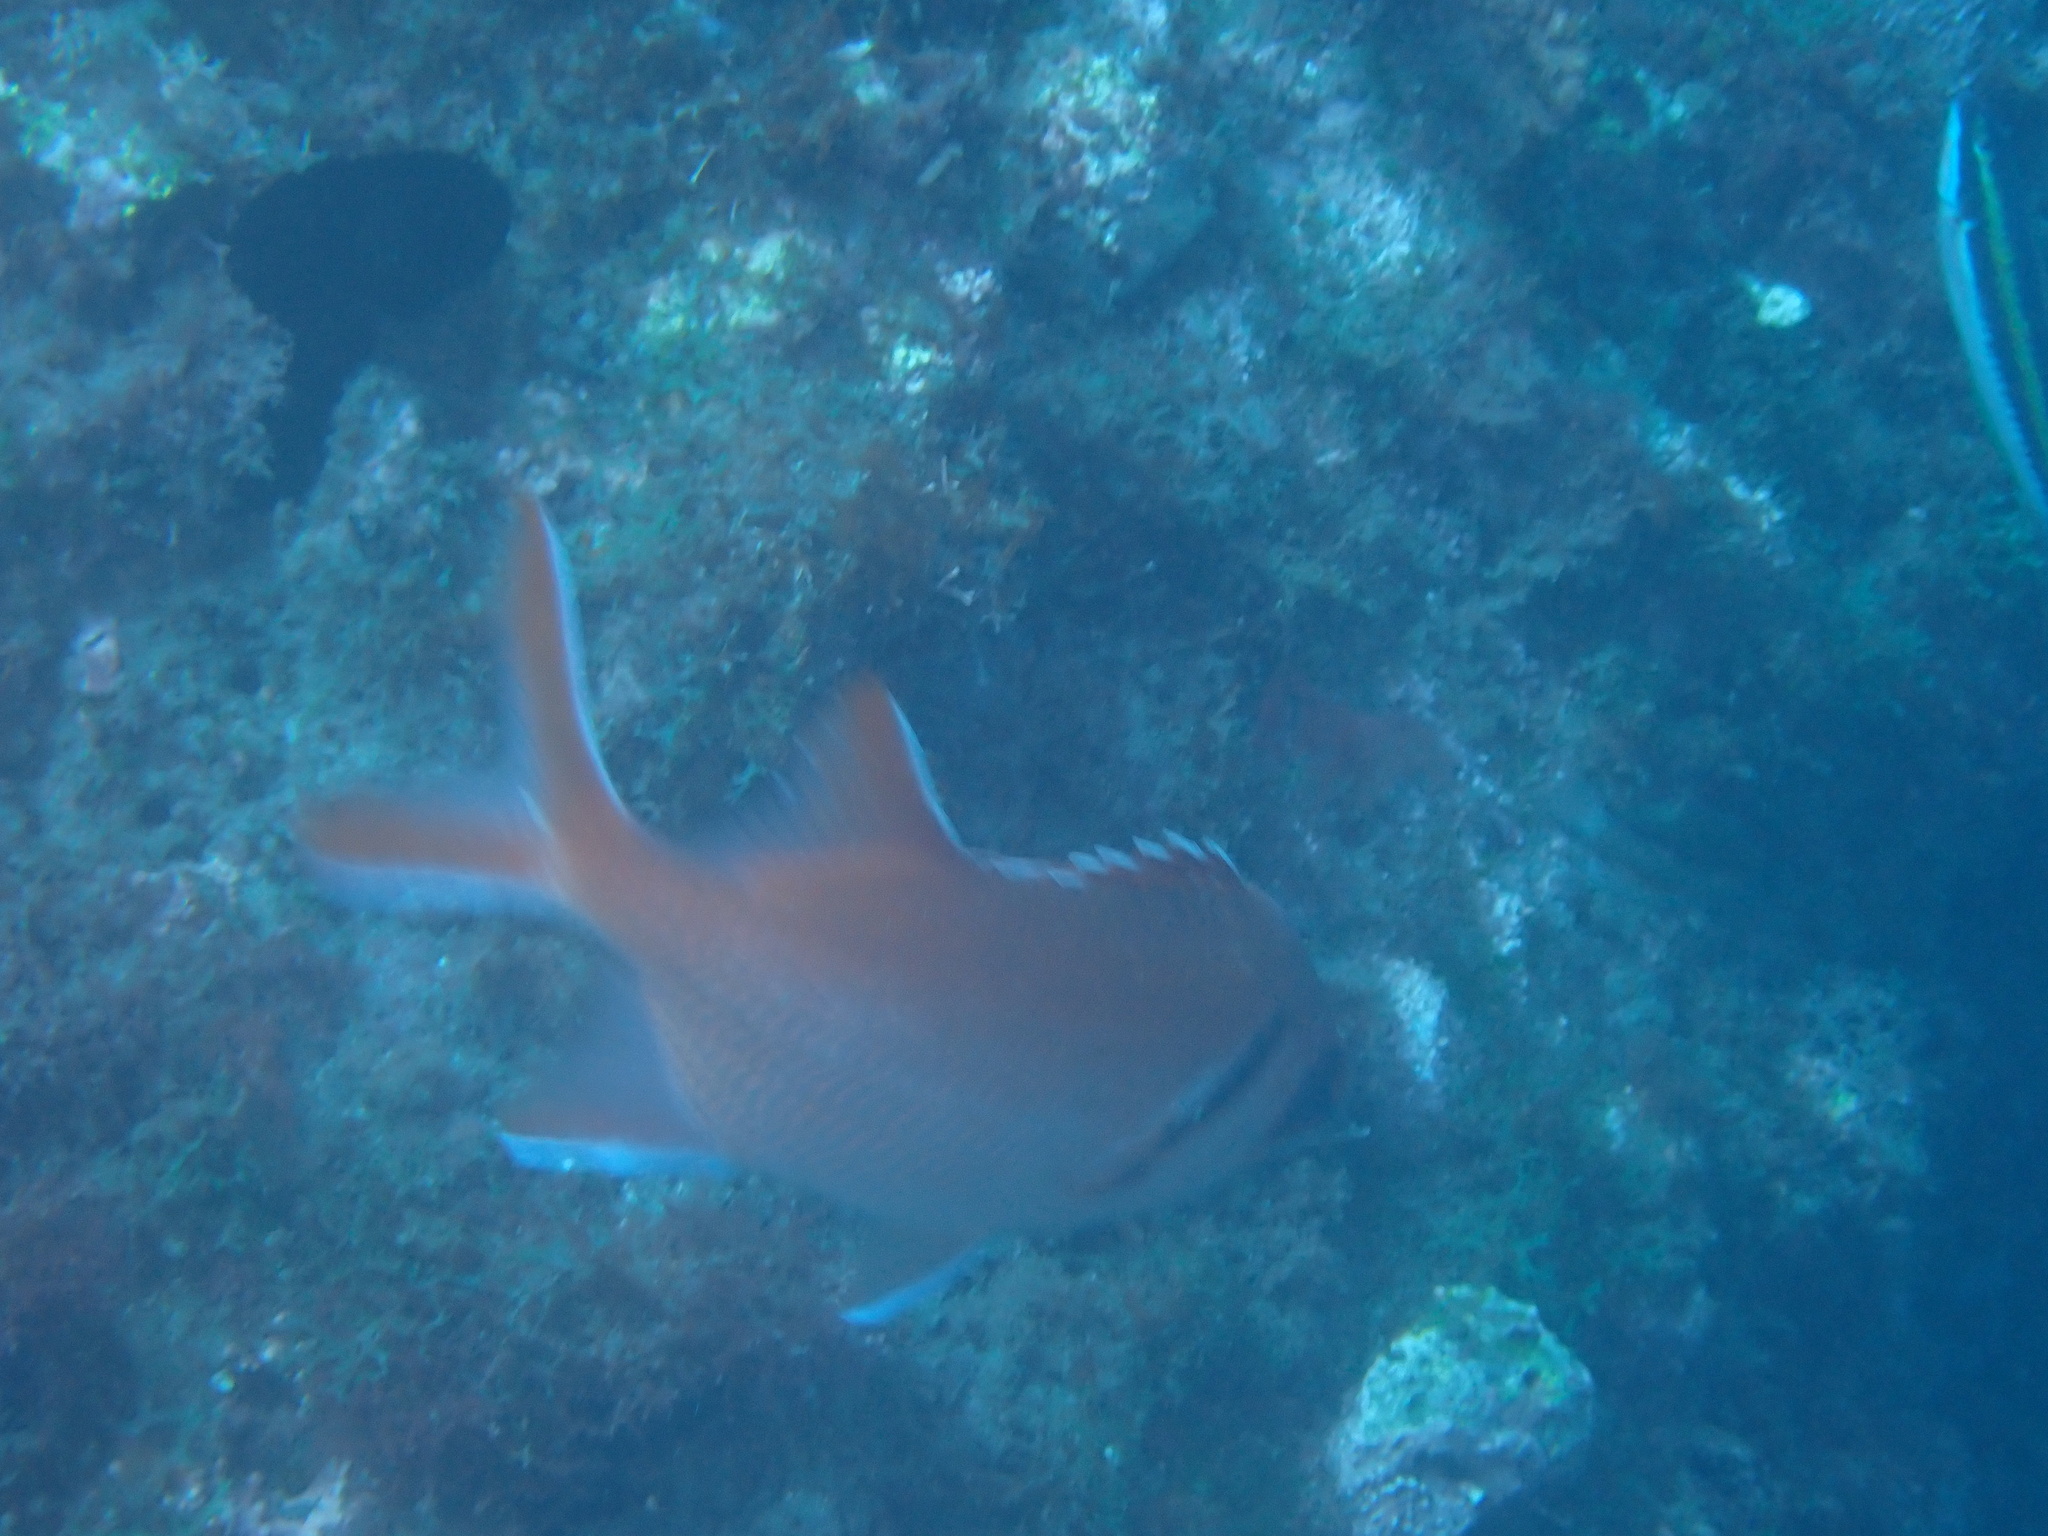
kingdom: Animalia
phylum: Chordata
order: Beryciformes
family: Holocentridae
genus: Myripristis
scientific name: Myripristis jacobus
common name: Blackbar soldierfish
